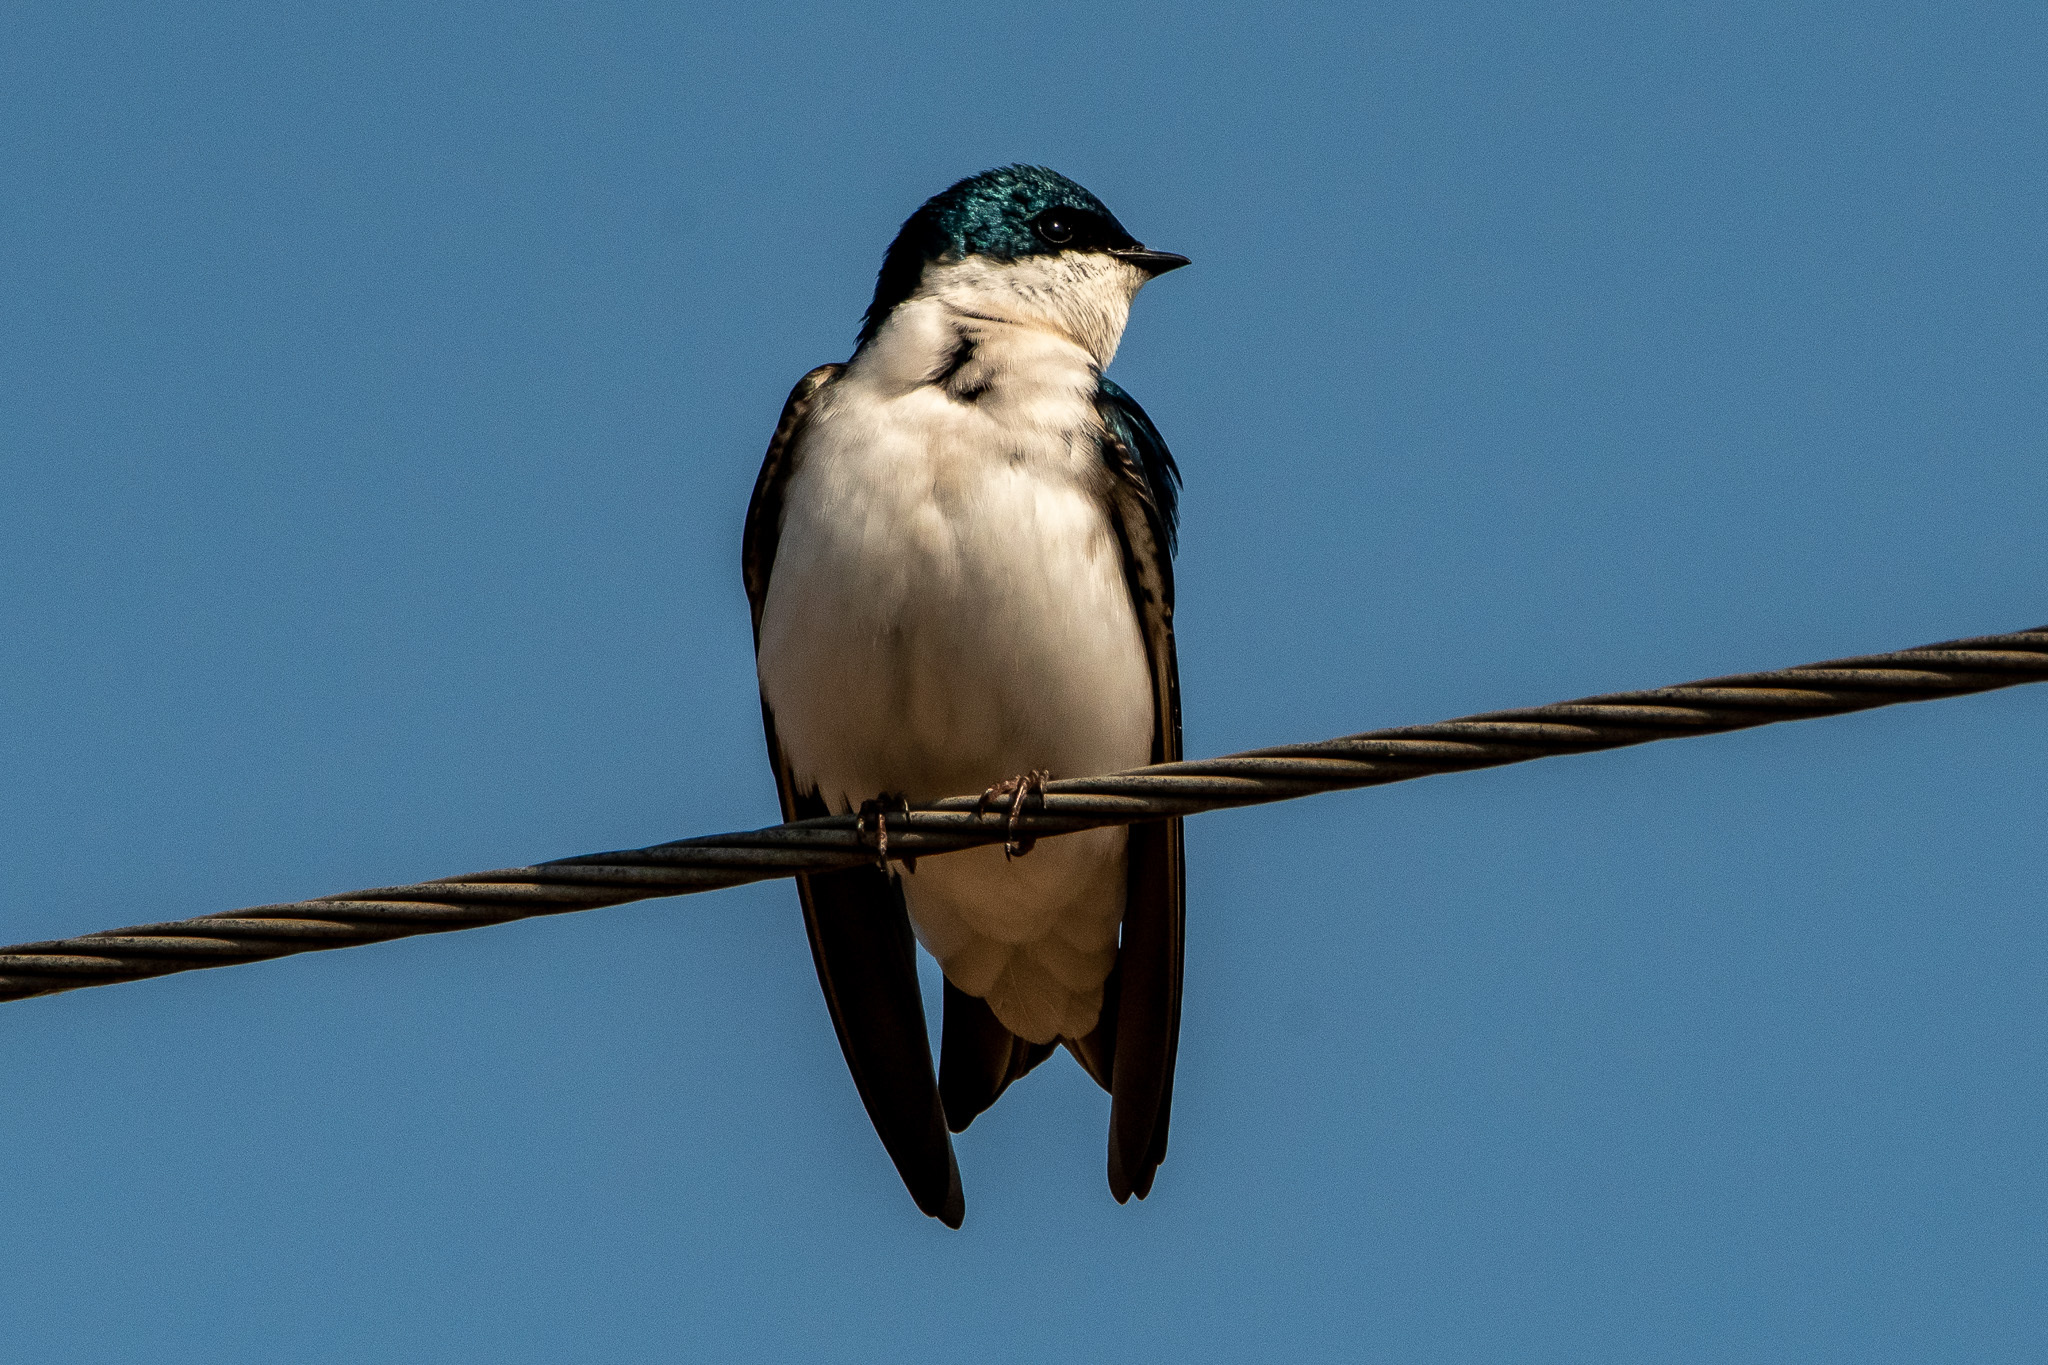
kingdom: Animalia
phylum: Chordata
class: Aves
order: Passeriformes
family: Hirundinidae
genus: Tachycineta
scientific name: Tachycineta bicolor
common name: Tree swallow
